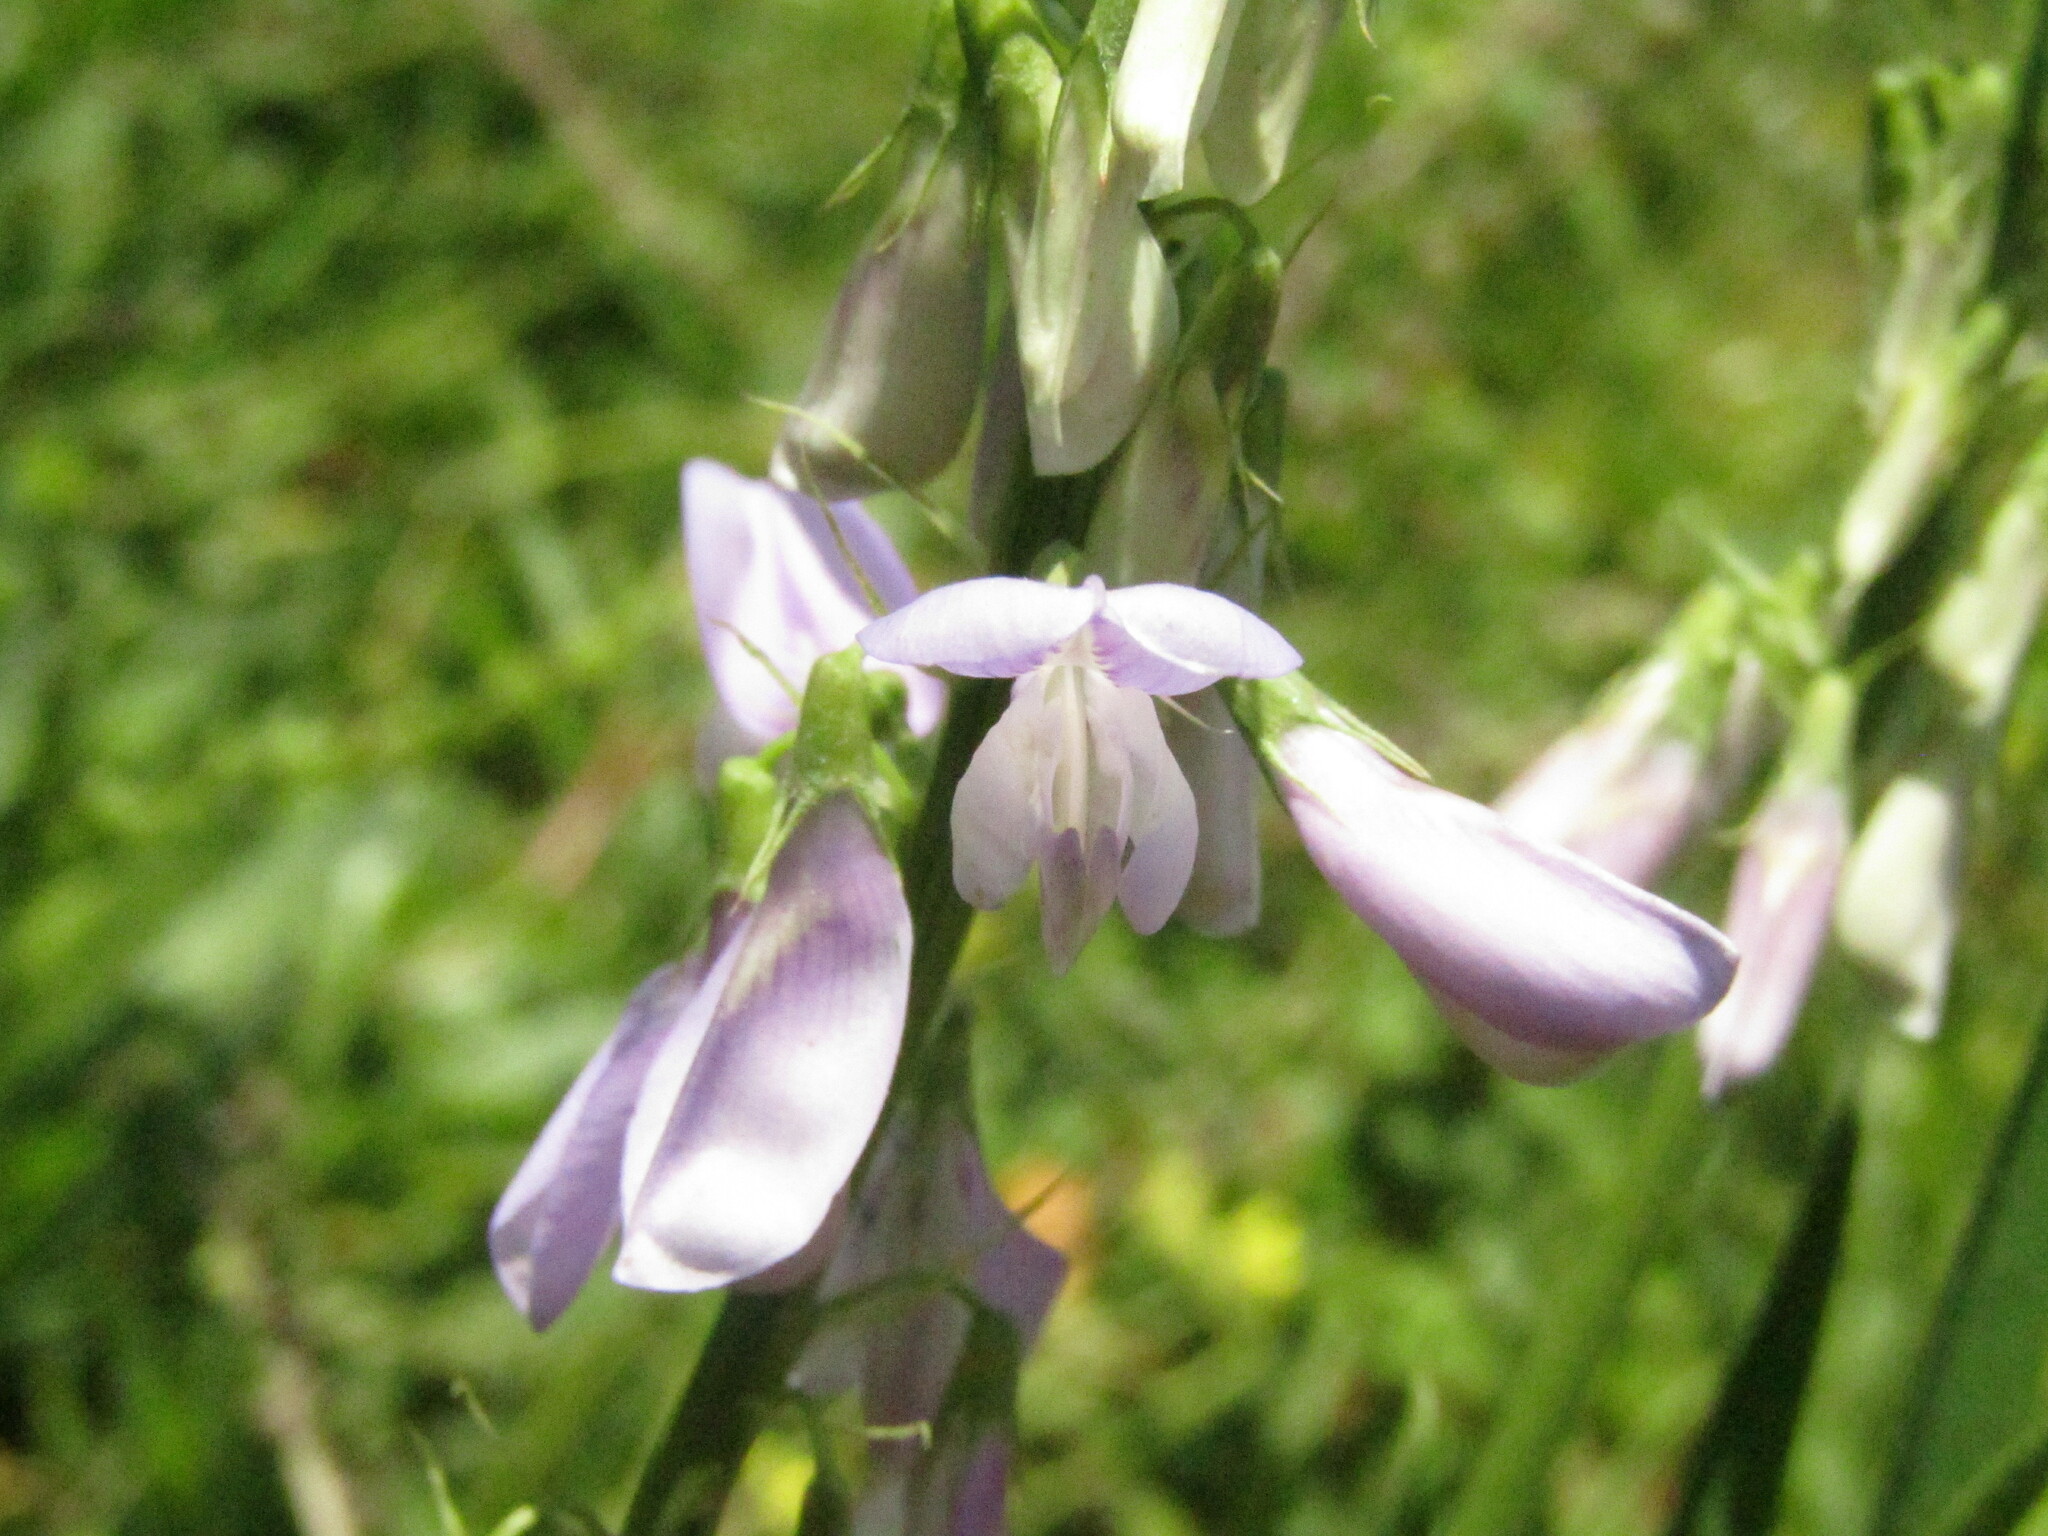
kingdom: Plantae
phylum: Tracheophyta
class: Magnoliopsida
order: Fabales
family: Fabaceae
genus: Galega
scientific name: Galega officinalis
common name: Goat's-rue
